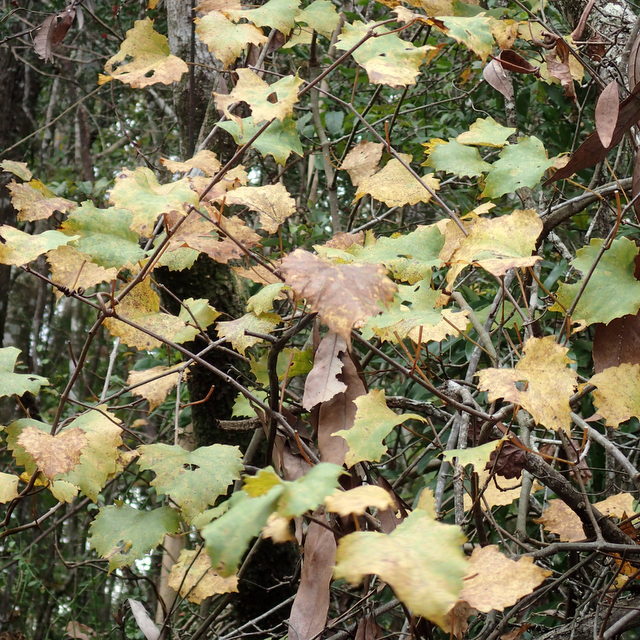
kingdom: Plantae
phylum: Tracheophyta
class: Magnoliopsida
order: Vitales
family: Vitaceae
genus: Vitis
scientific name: Vitis rotundifolia
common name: Muscadine grape
